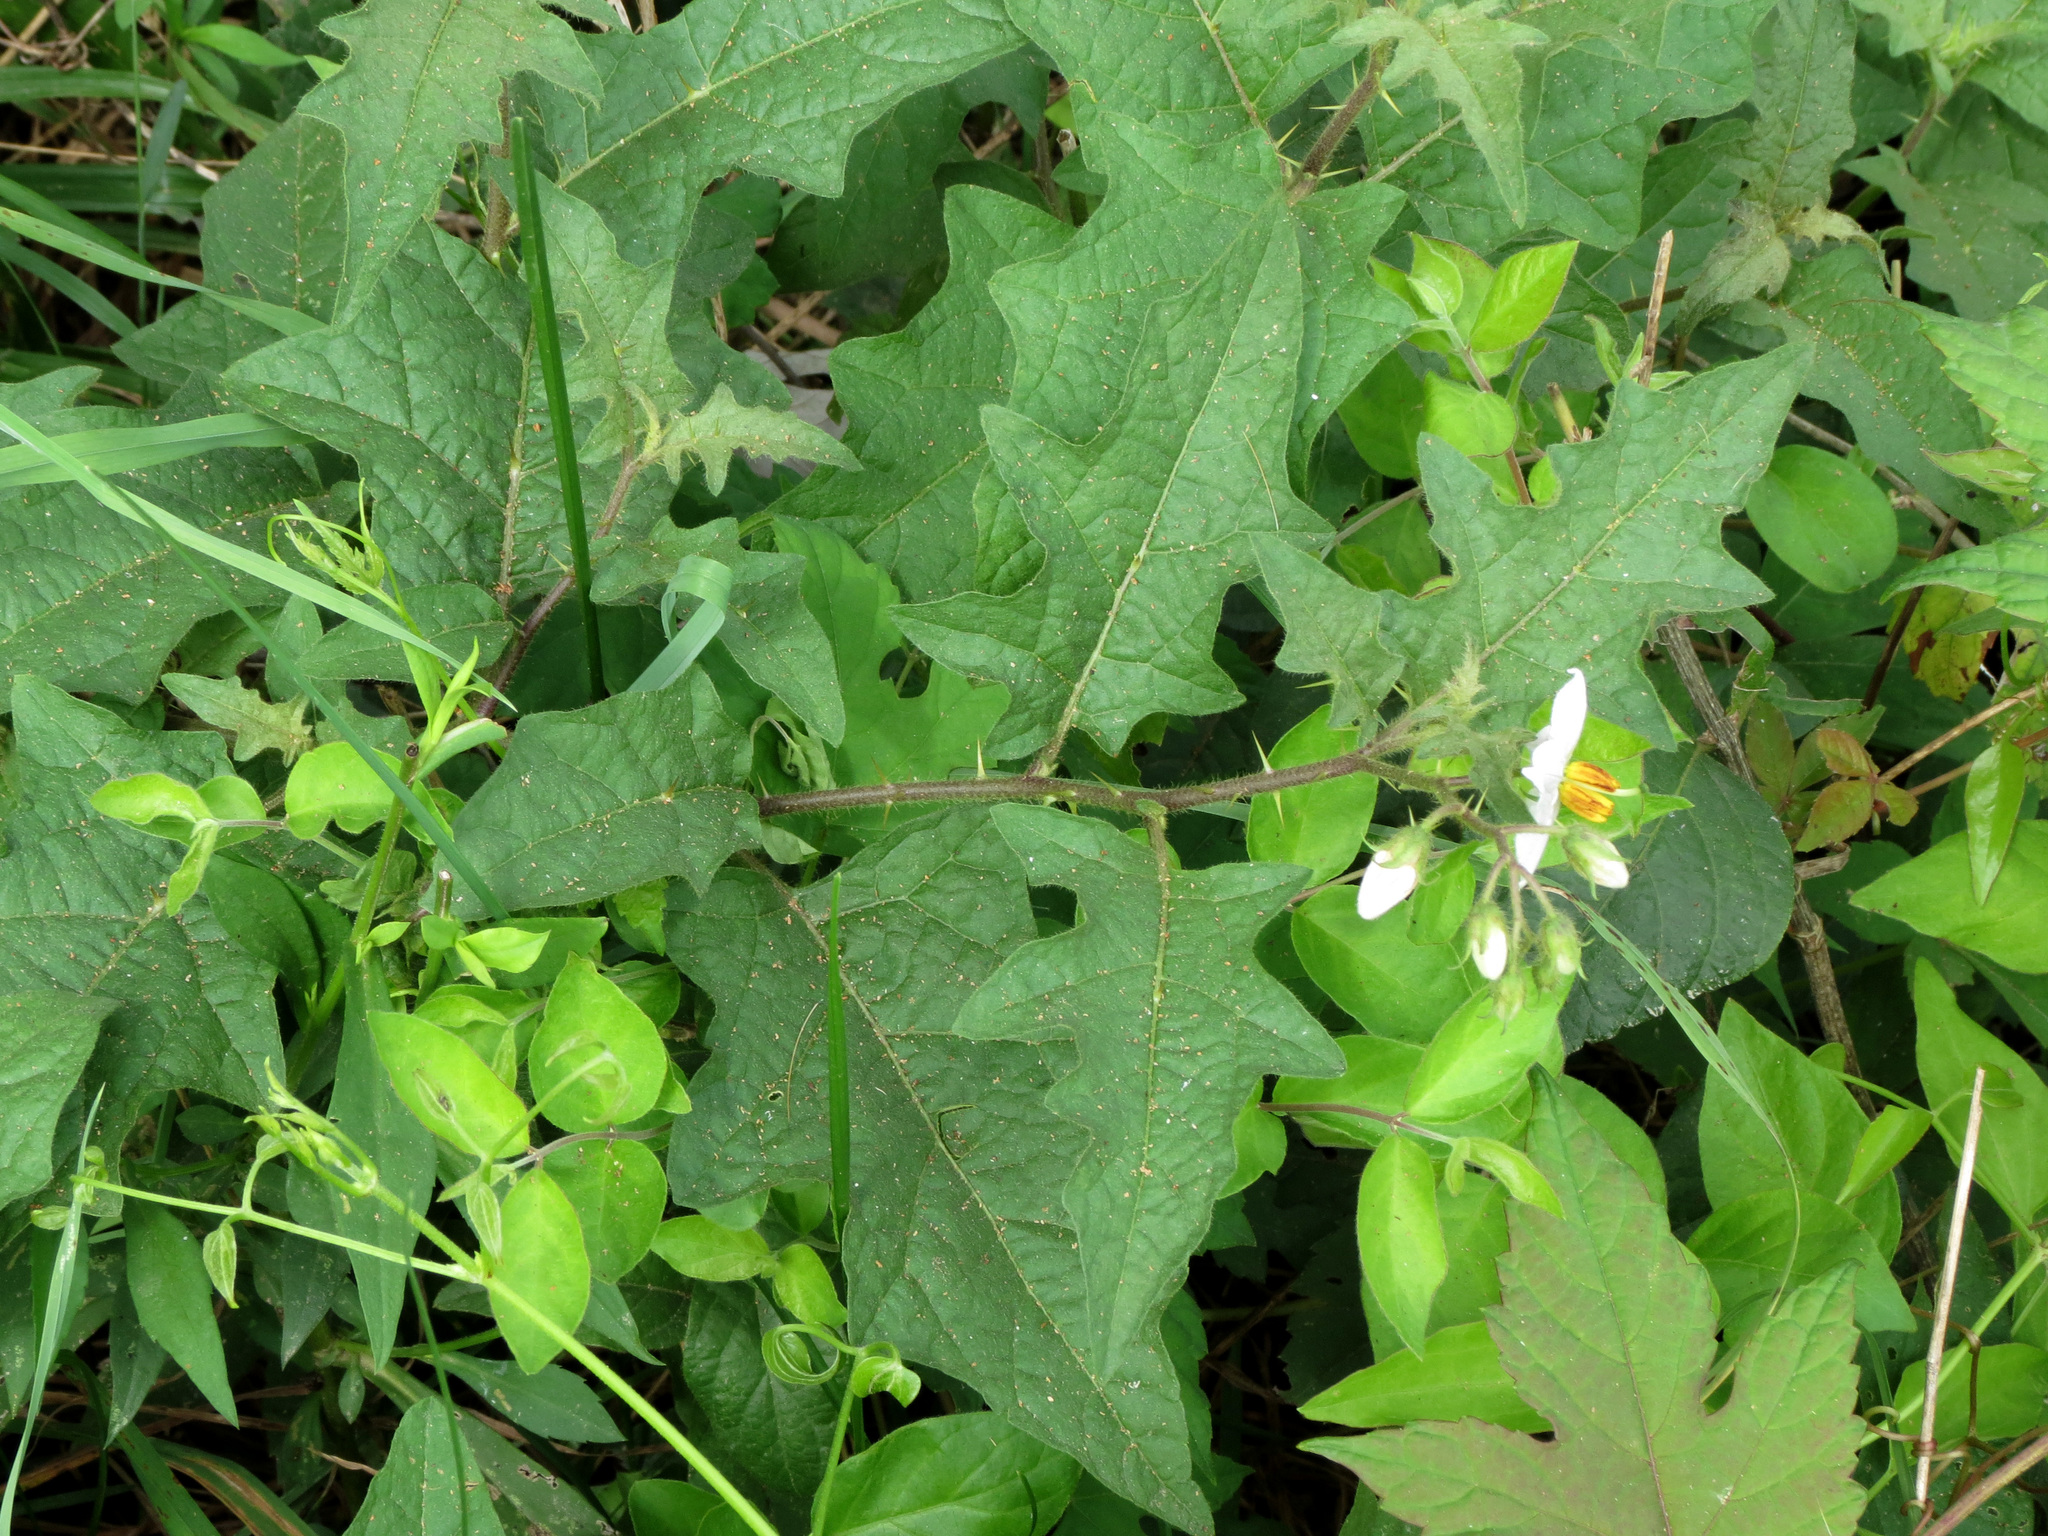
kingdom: Plantae
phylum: Tracheophyta
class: Magnoliopsida
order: Solanales
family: Solanaceae
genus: Solanum
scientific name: Solanum carolinense
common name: Horse-nettle
